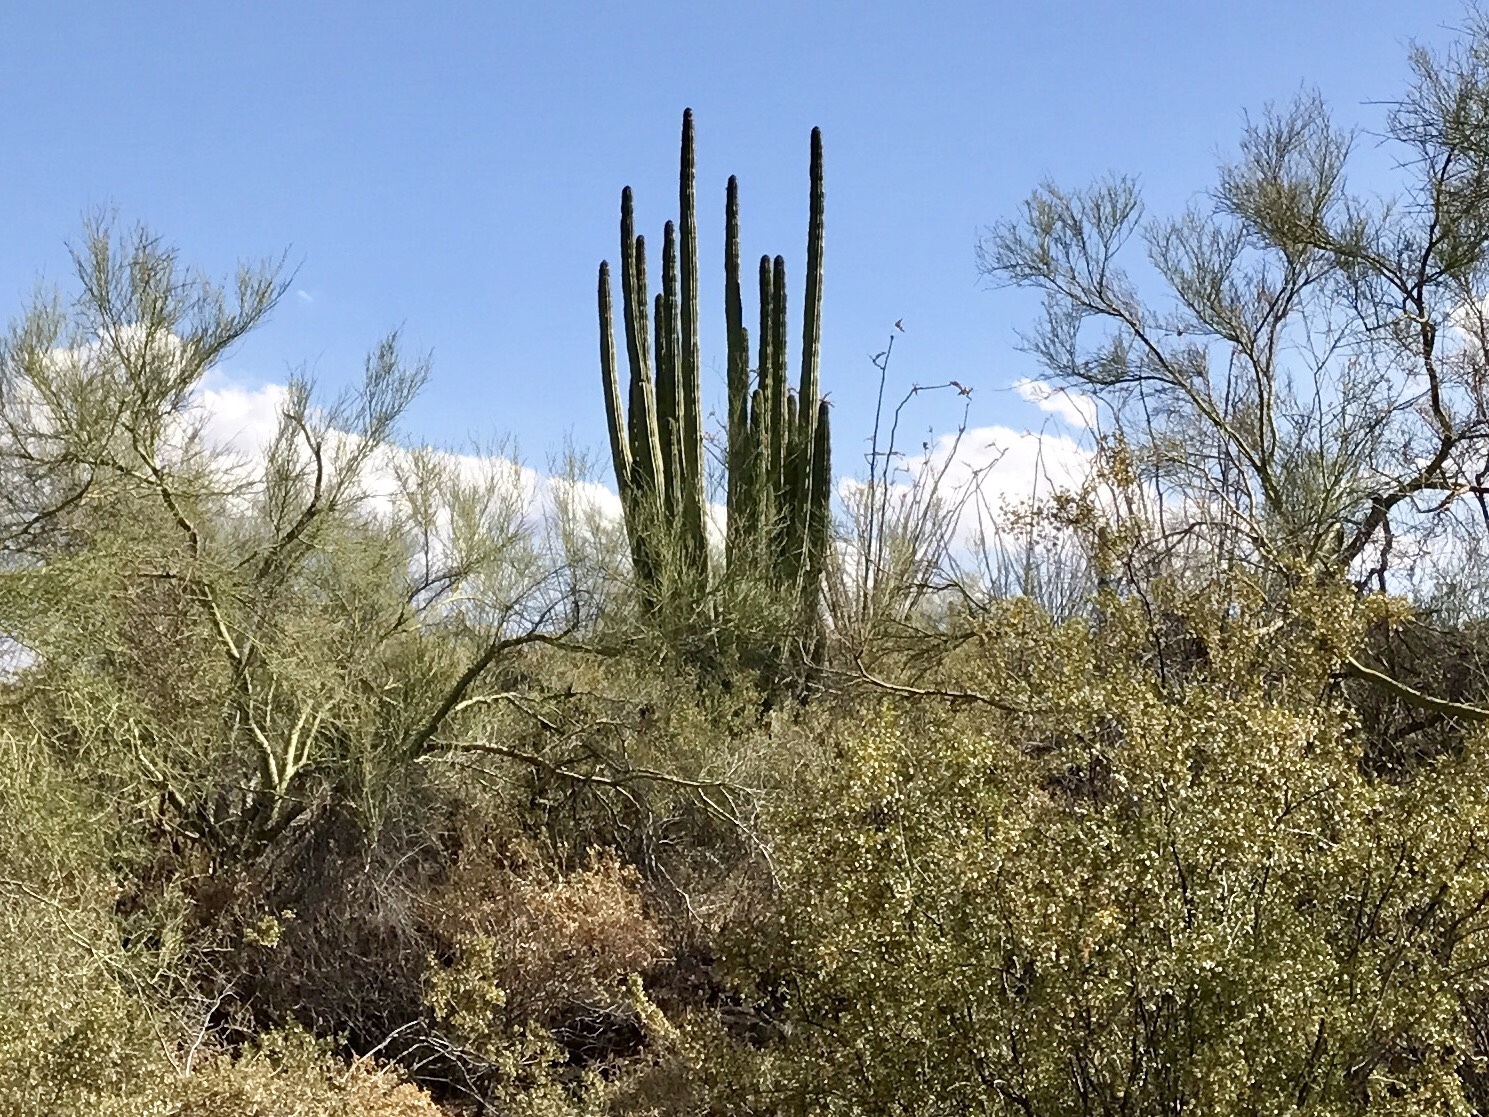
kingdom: Plantae
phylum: Tracheophyta
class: Magnoliopsida
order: Caryophyllales
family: Cactaceae
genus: Stenocereus
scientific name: Stenocereus thurberi
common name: Organ pipe cactus
